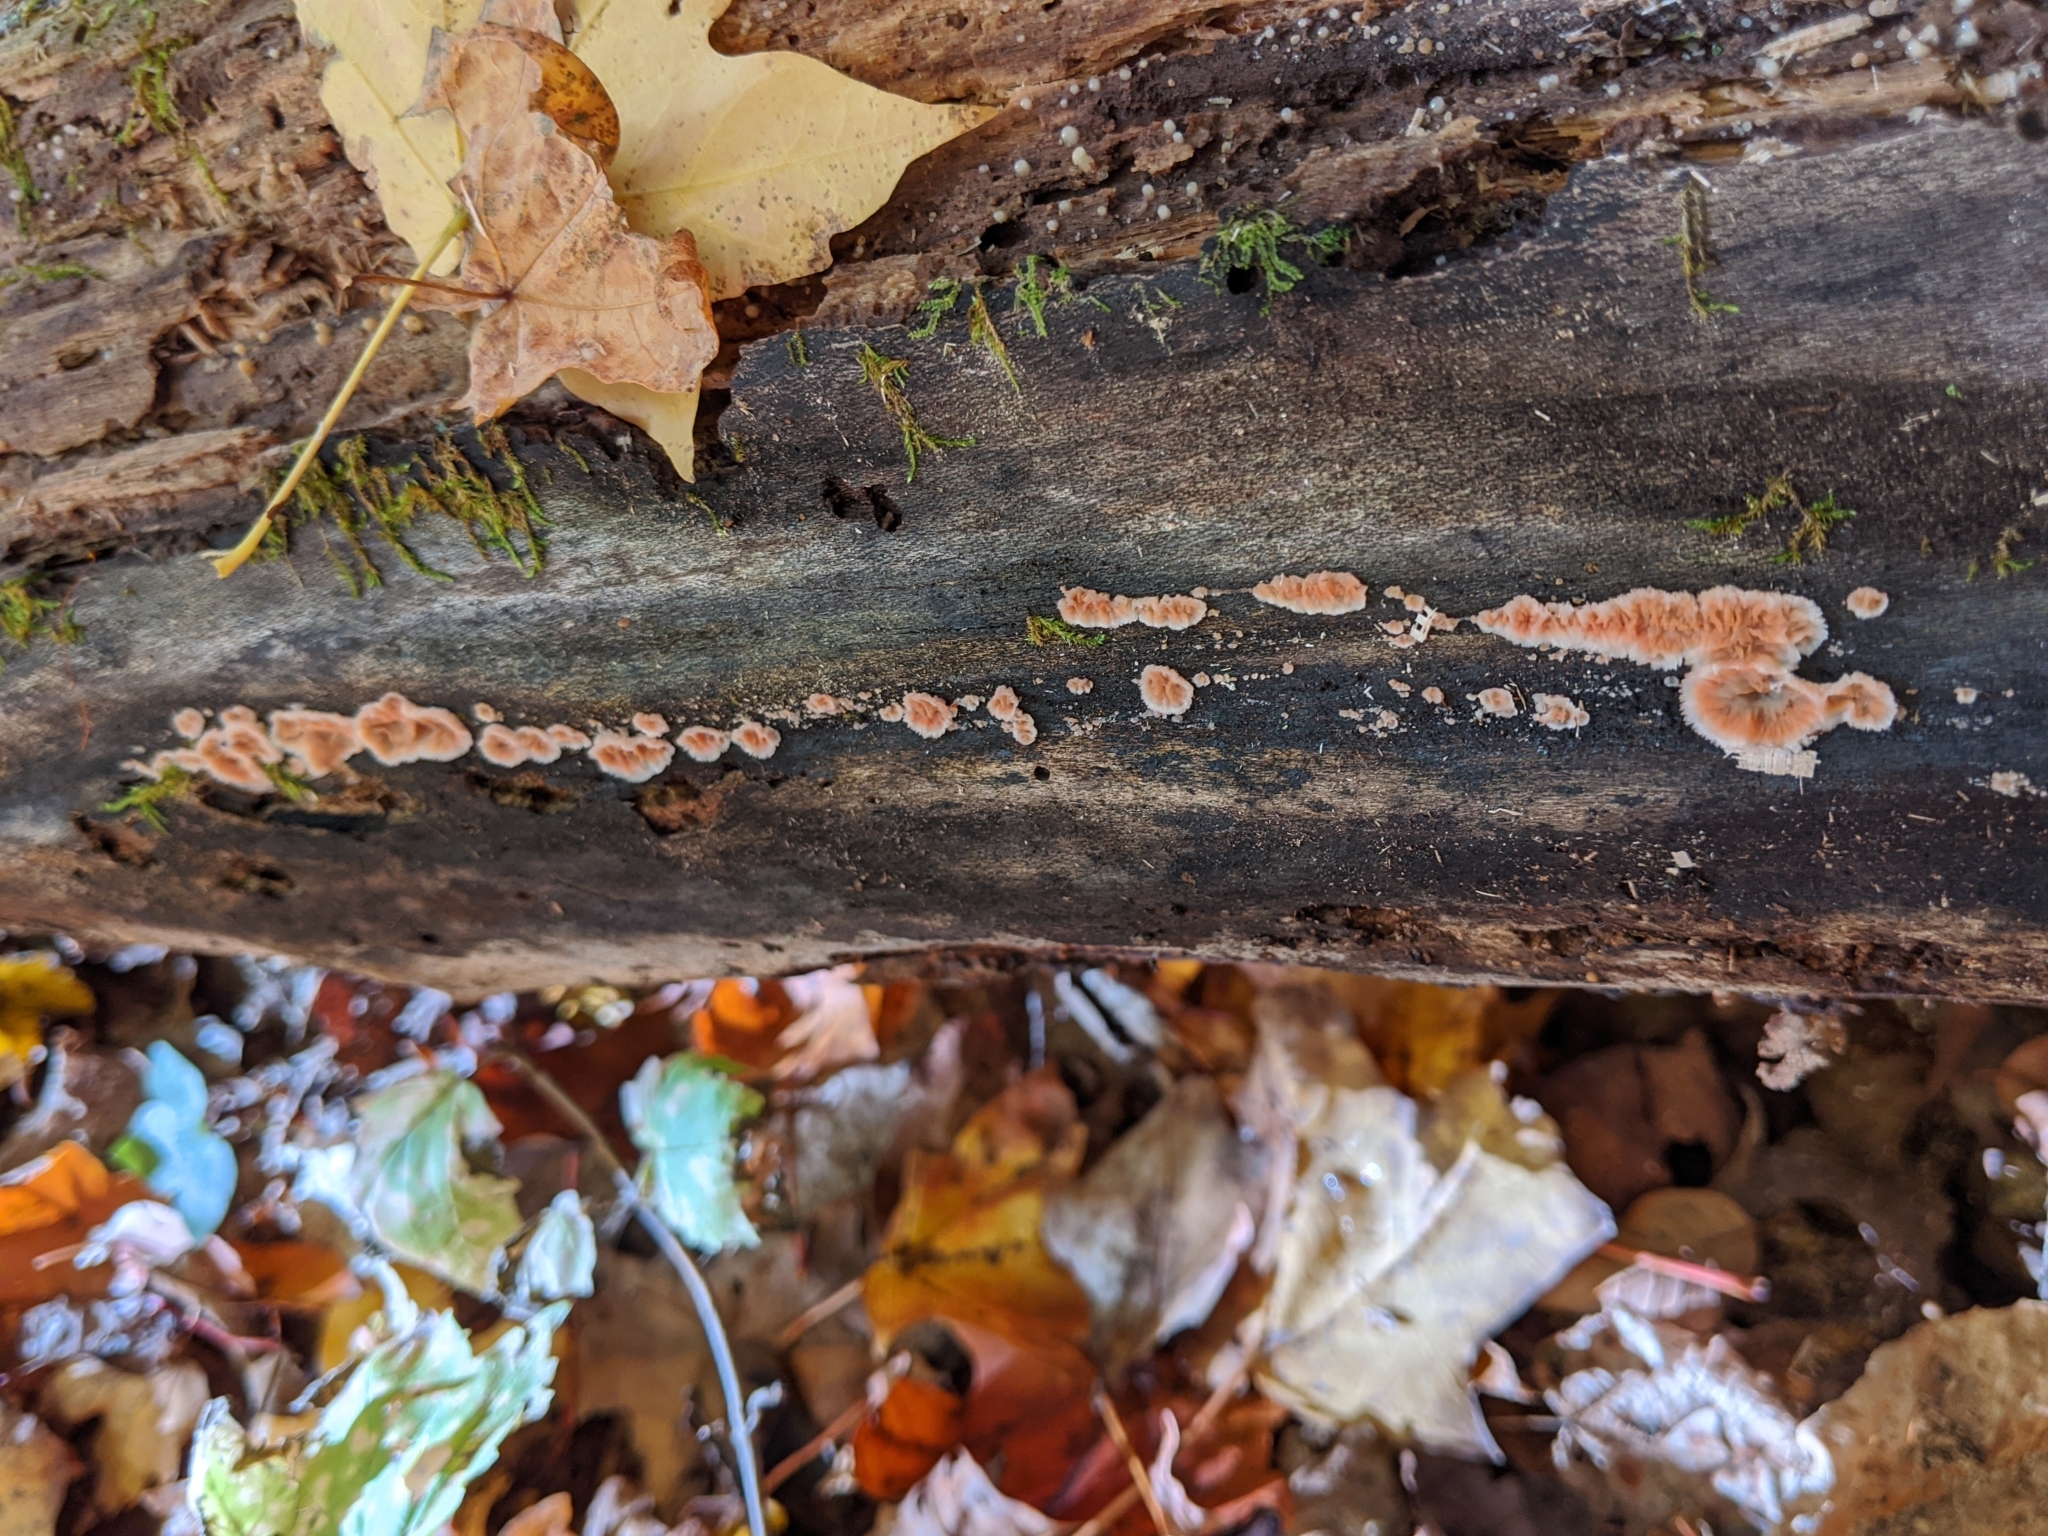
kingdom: Fungi
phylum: Basidiomycota
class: Agaricomycetes
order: Polyporales
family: Meruliaceae
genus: Phlebia
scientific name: Phlebia tremellosa
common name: Jelly rot
